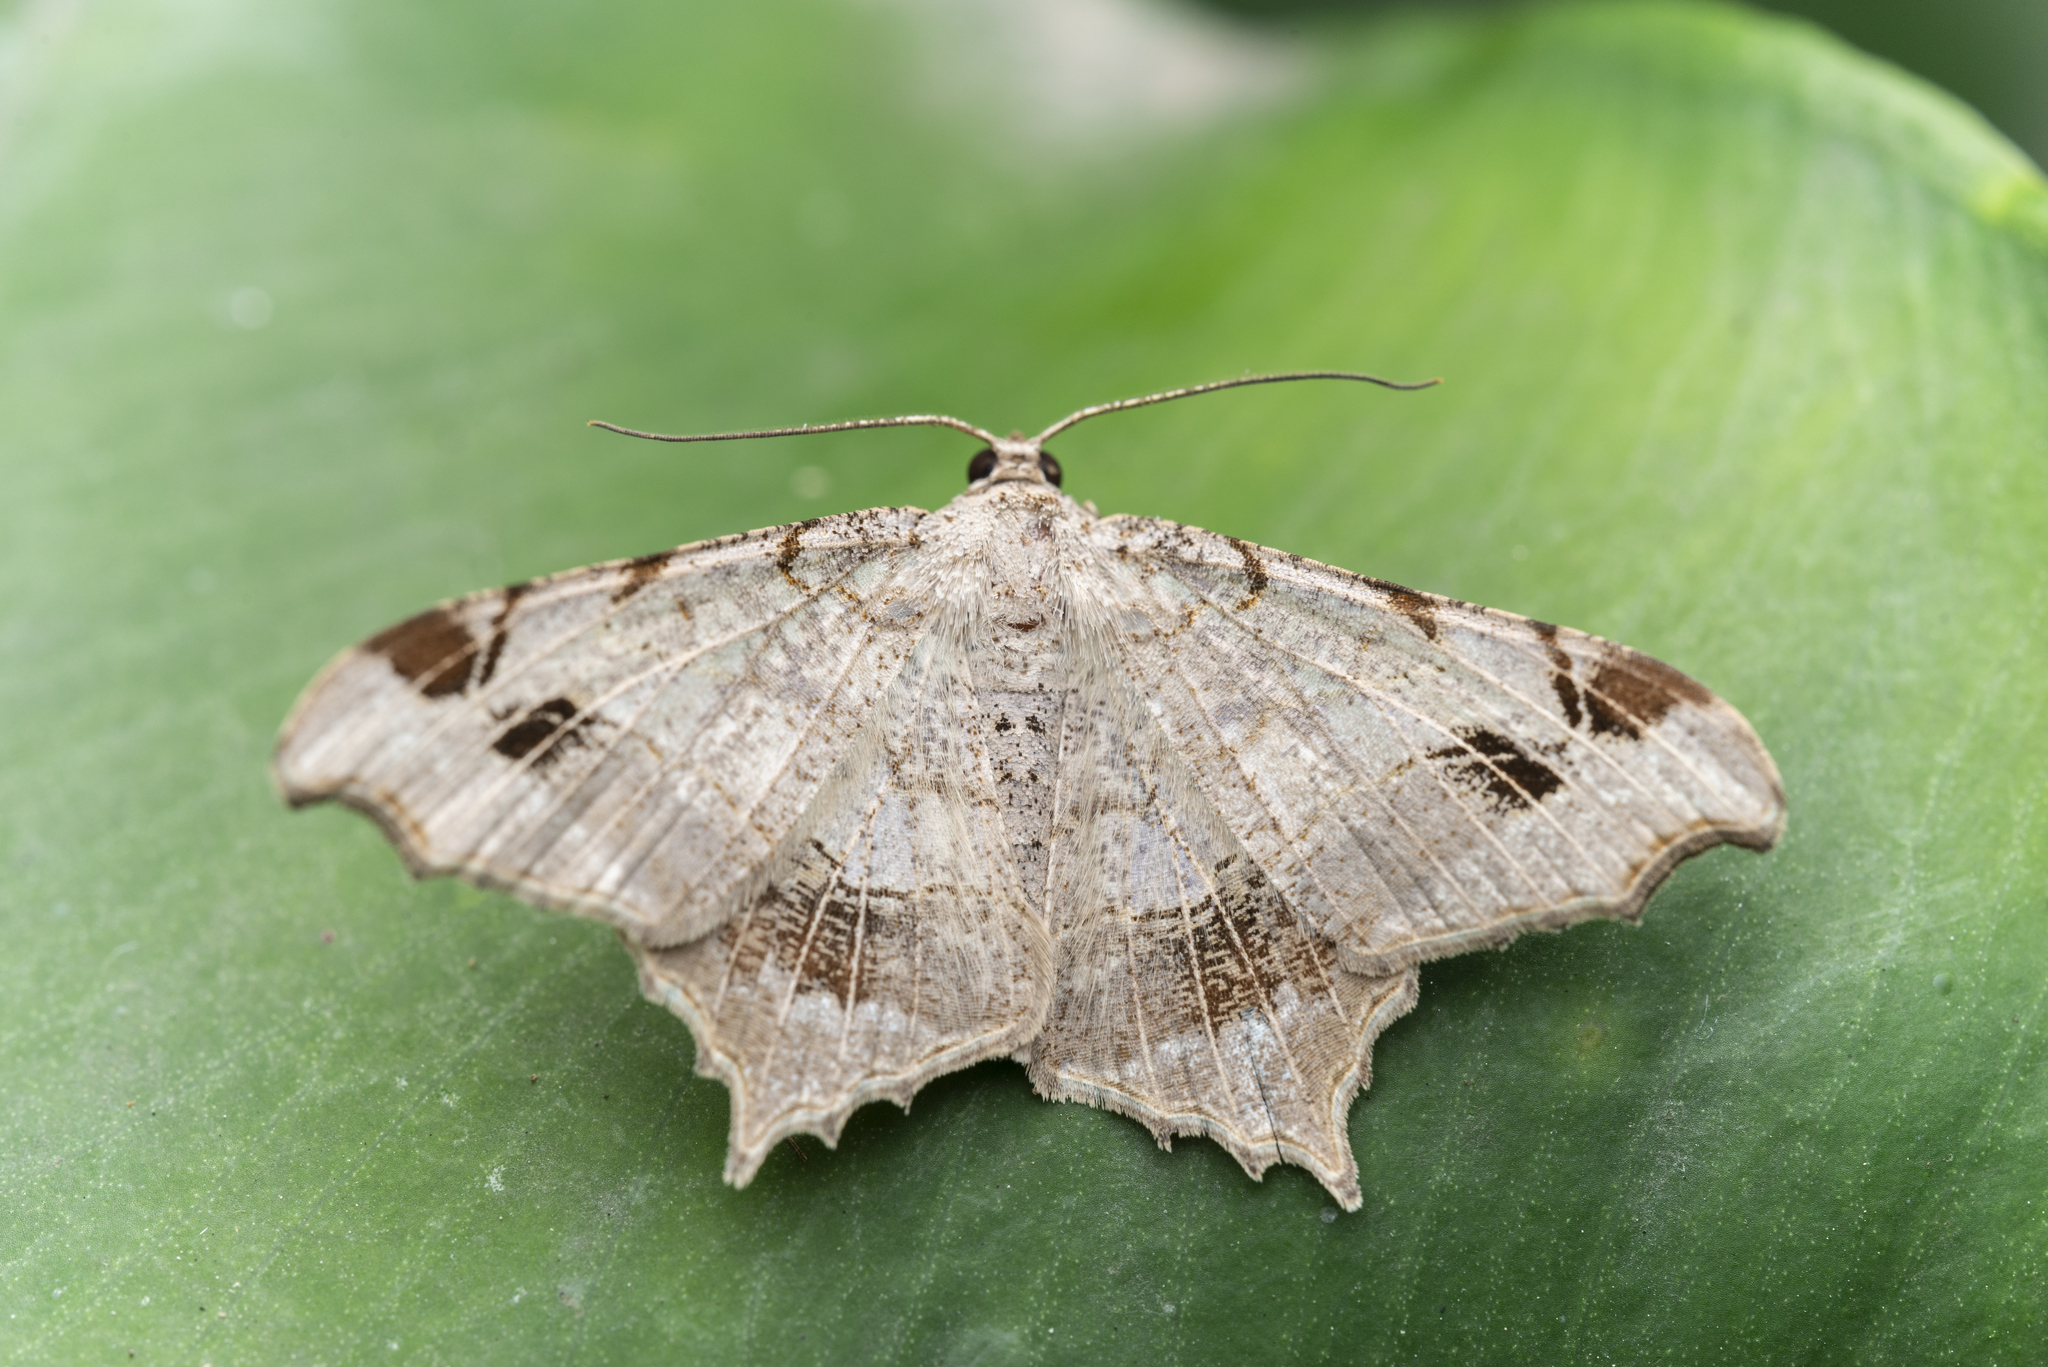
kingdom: Animalia
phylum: Arthropoda
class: Insecta
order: Lepidoptera
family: Geometridae
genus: Chiasmia
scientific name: Chiasmia emersaria
